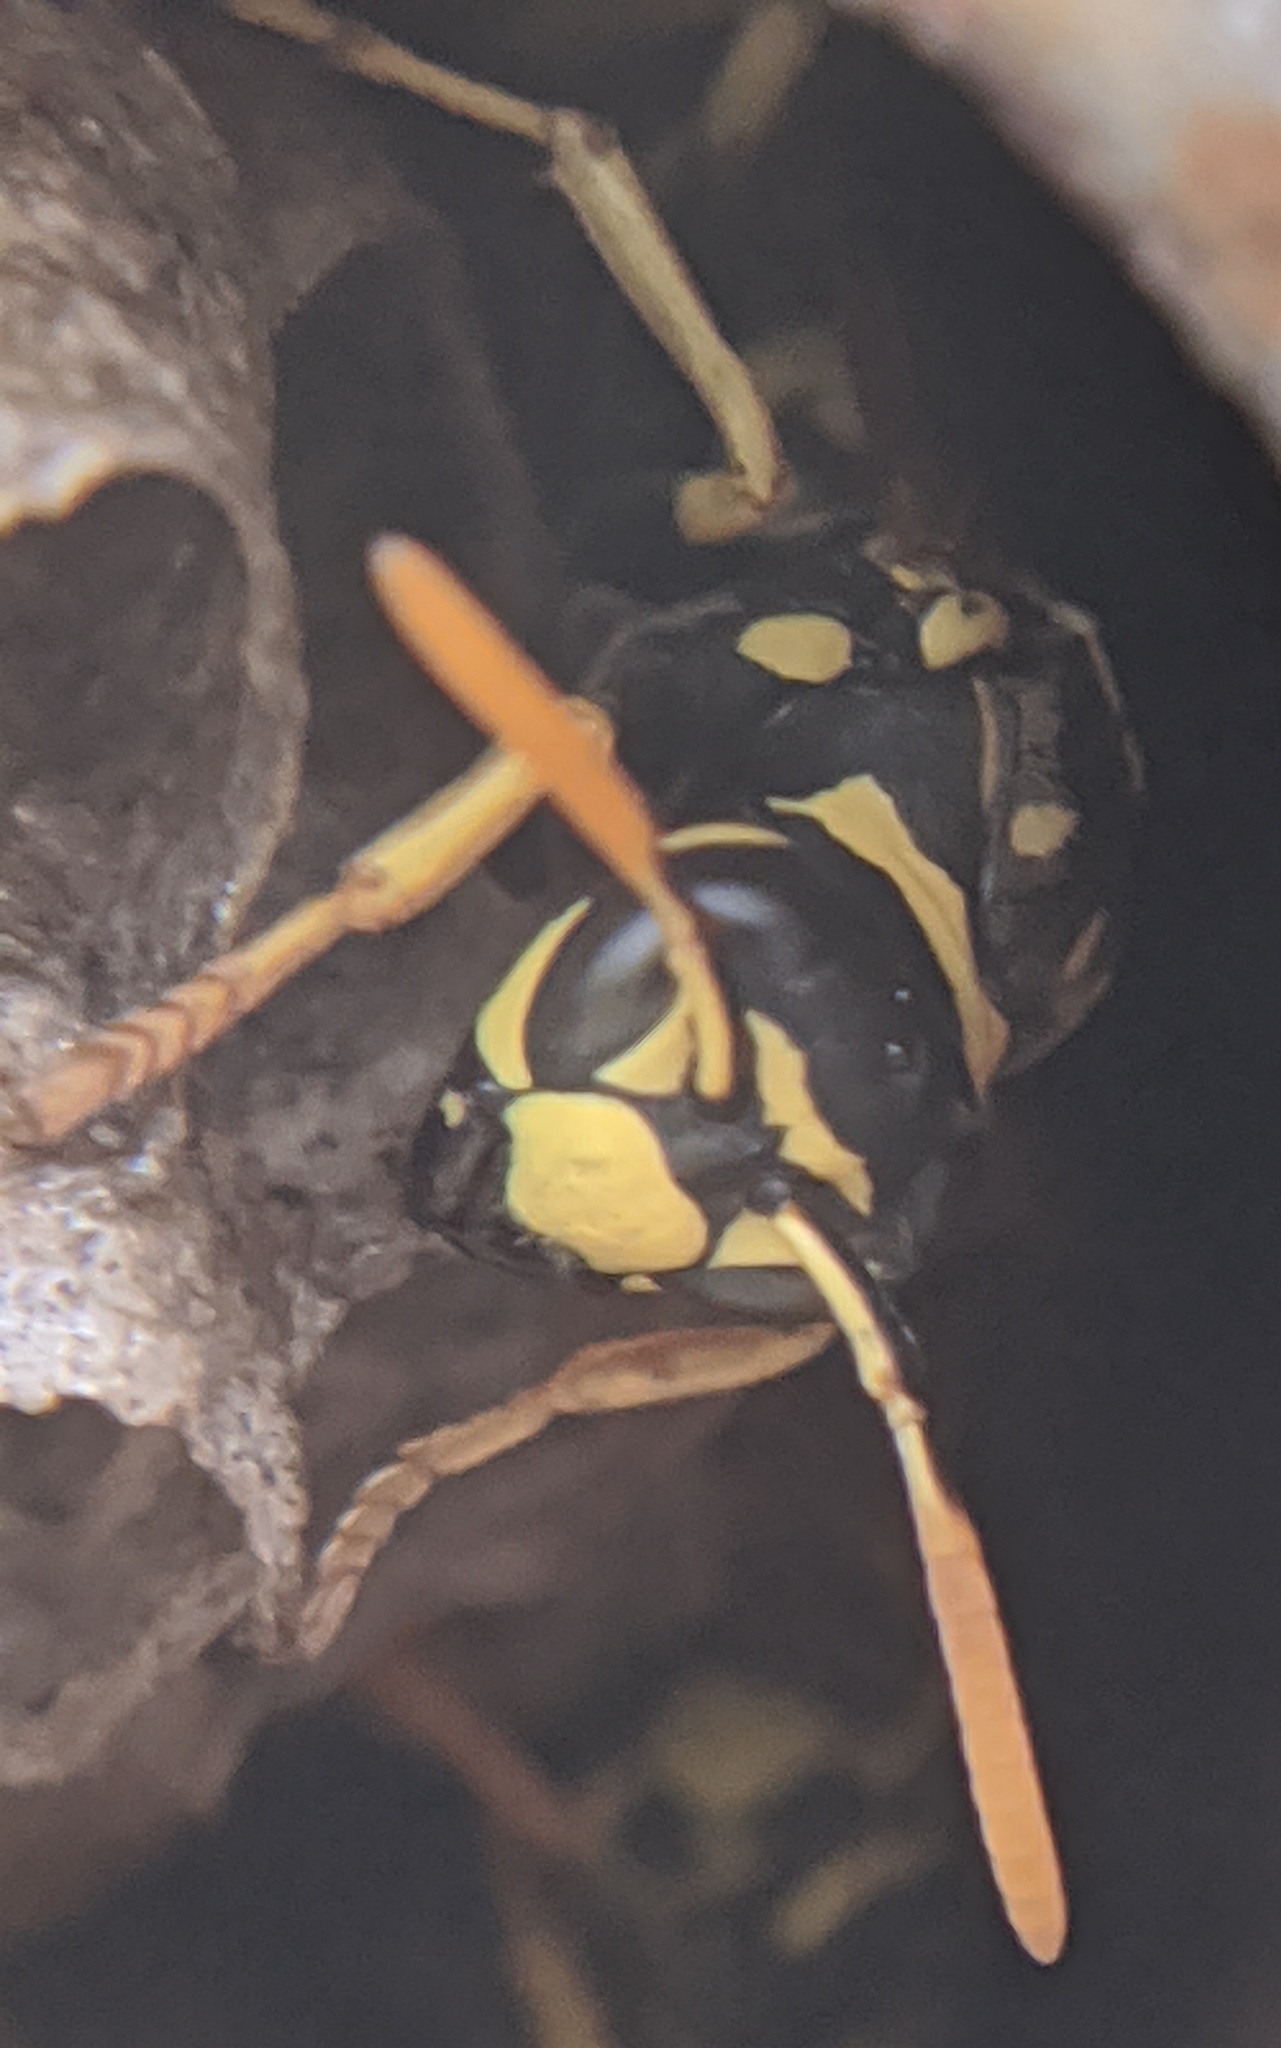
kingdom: Animalia
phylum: Arthropoda
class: Insecta
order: Hymenoptera
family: Eumenidae
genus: Polistes
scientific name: Polistes dominula
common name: Paper wasp
